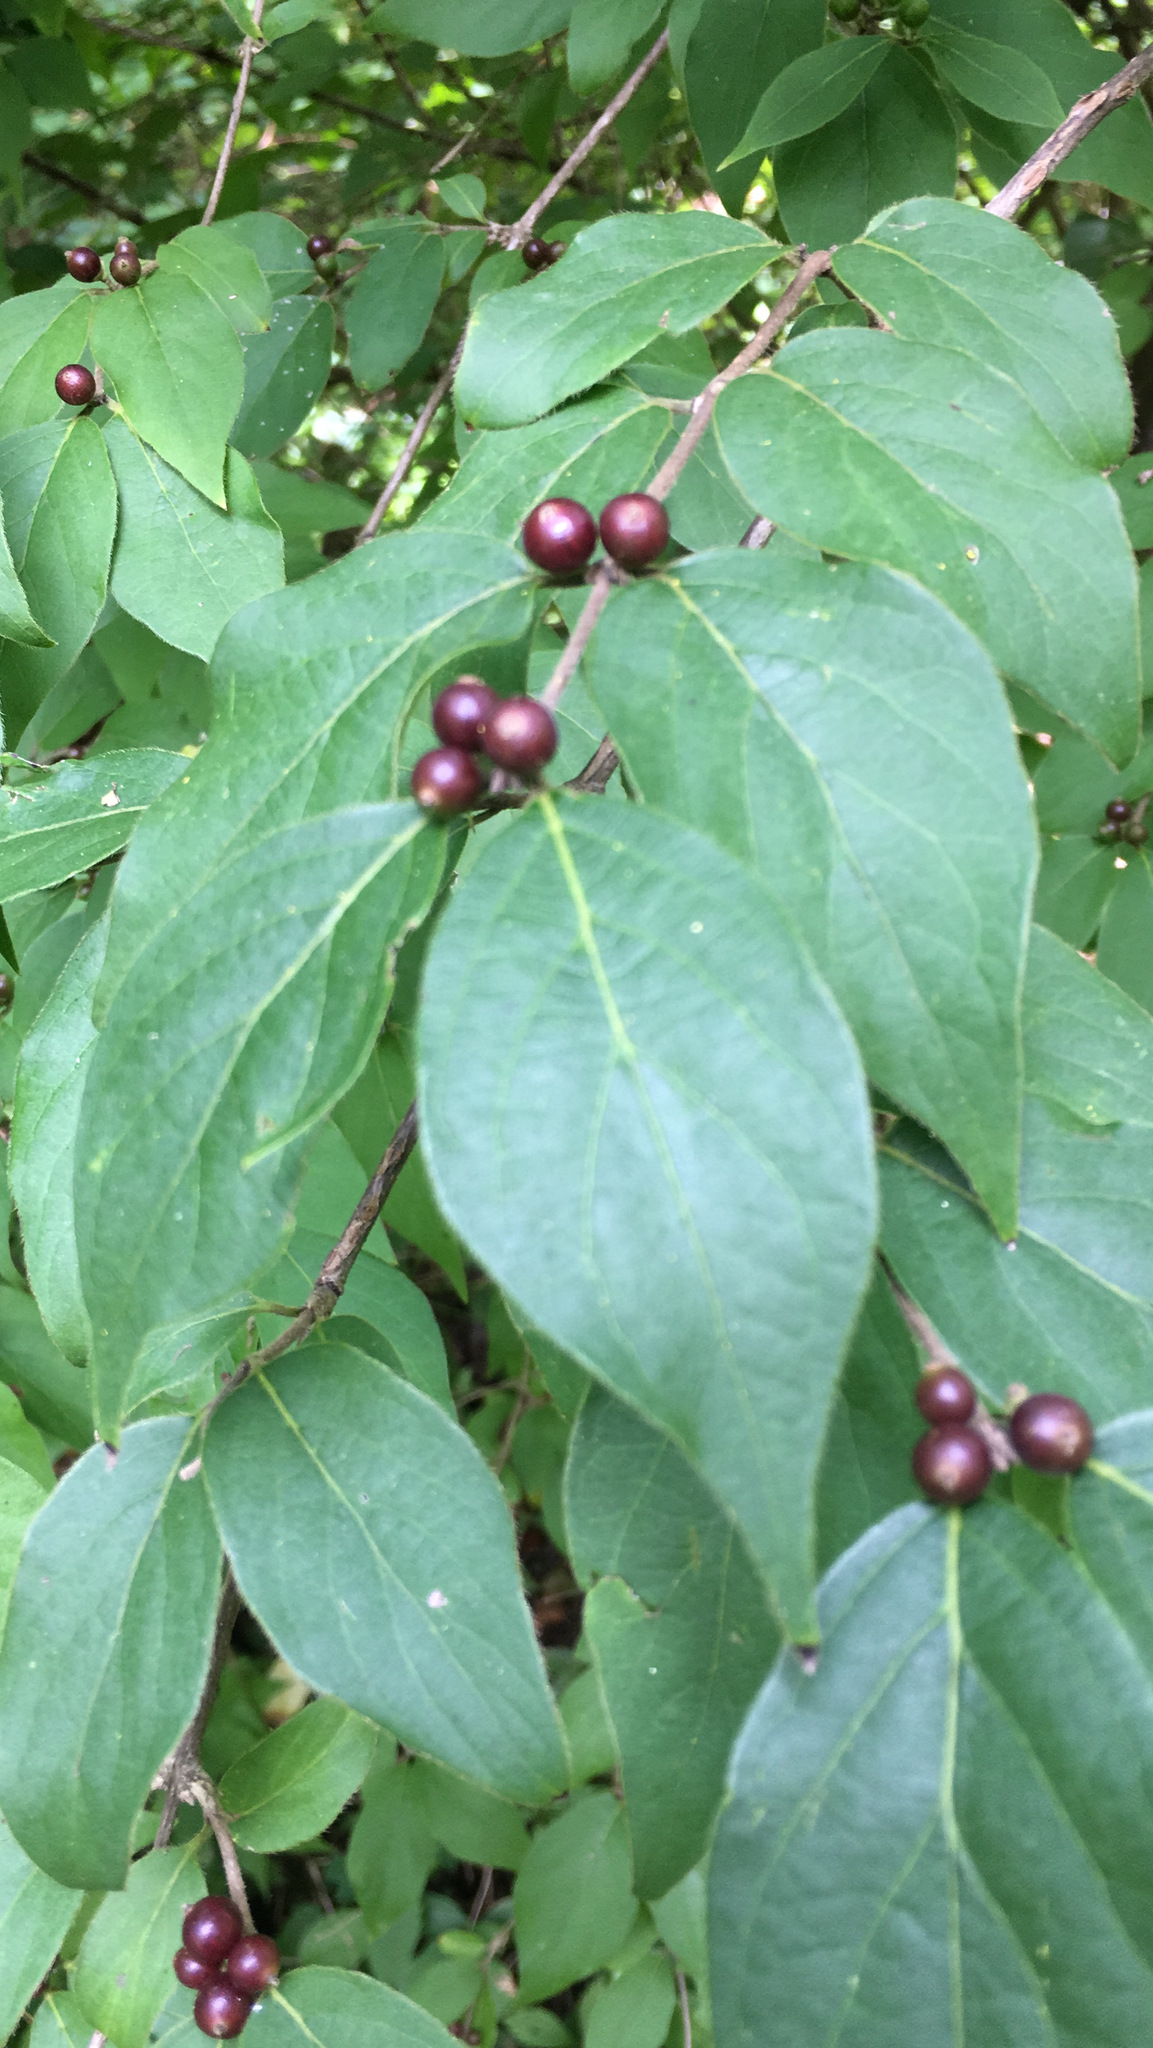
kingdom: Plantae
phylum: Tracheophyta
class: Magnoliopsida
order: Dipsacales
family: Caprifoliaceae
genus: Lonicera
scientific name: Lonicera maackii
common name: Amur honeysuckle
